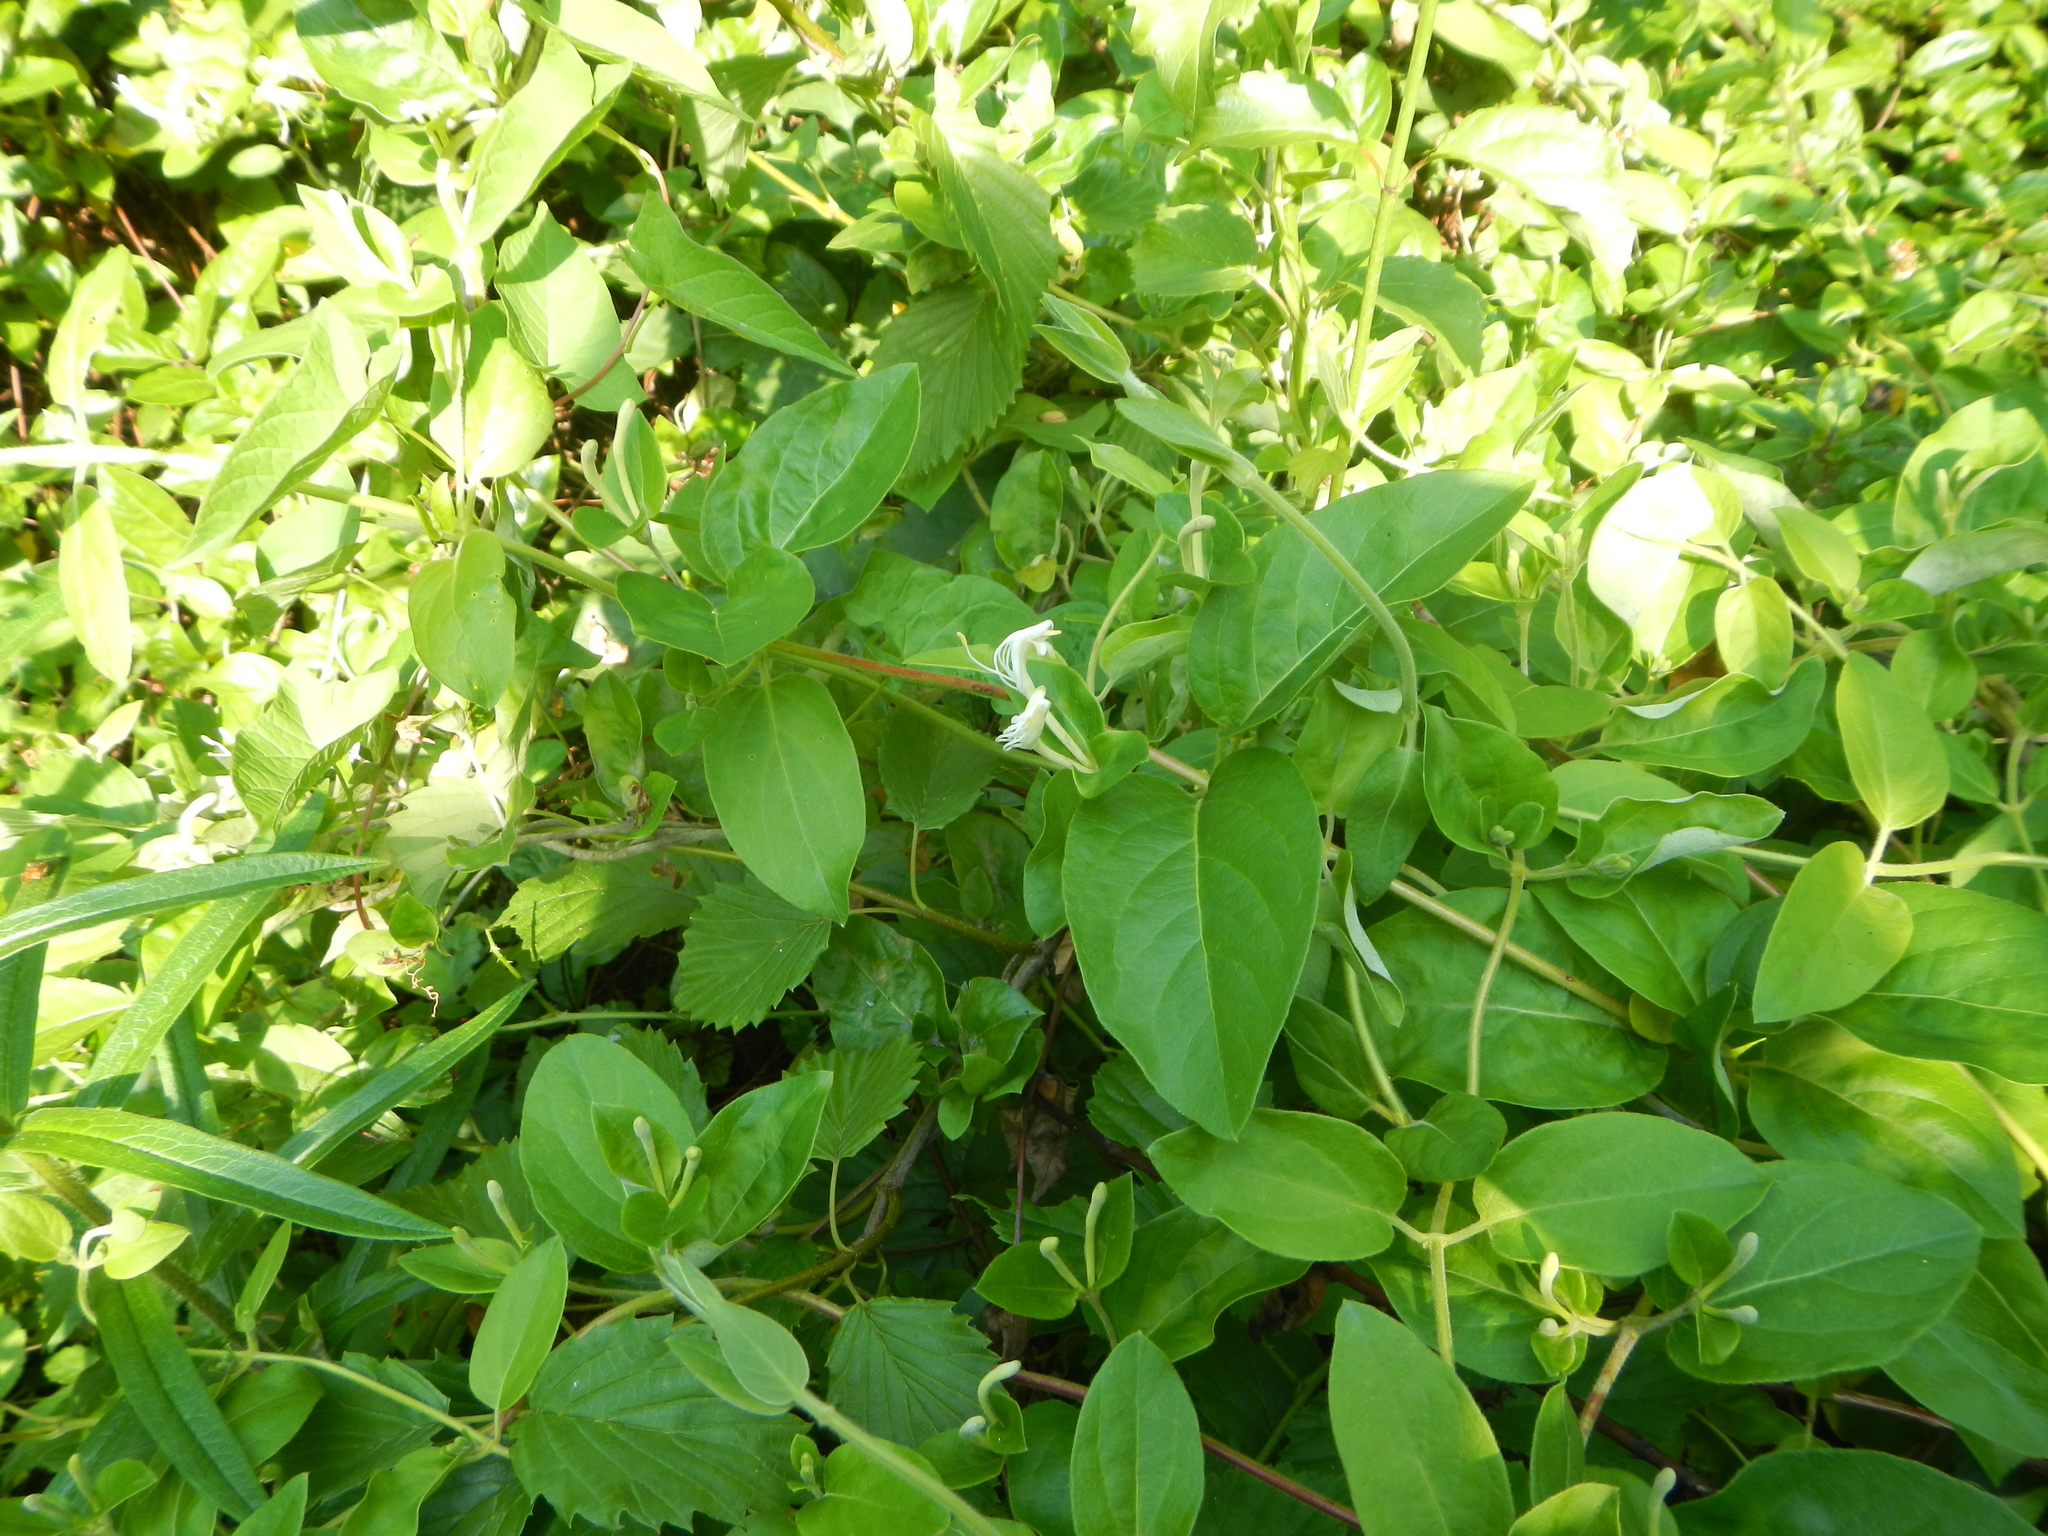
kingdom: Plantae
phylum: Tracheophyta
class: Magnoliopsida
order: Dipsacales
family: Caprifoliaceae
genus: Lonicera
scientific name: Lonicera japonica
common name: Japanese honeysuckle
